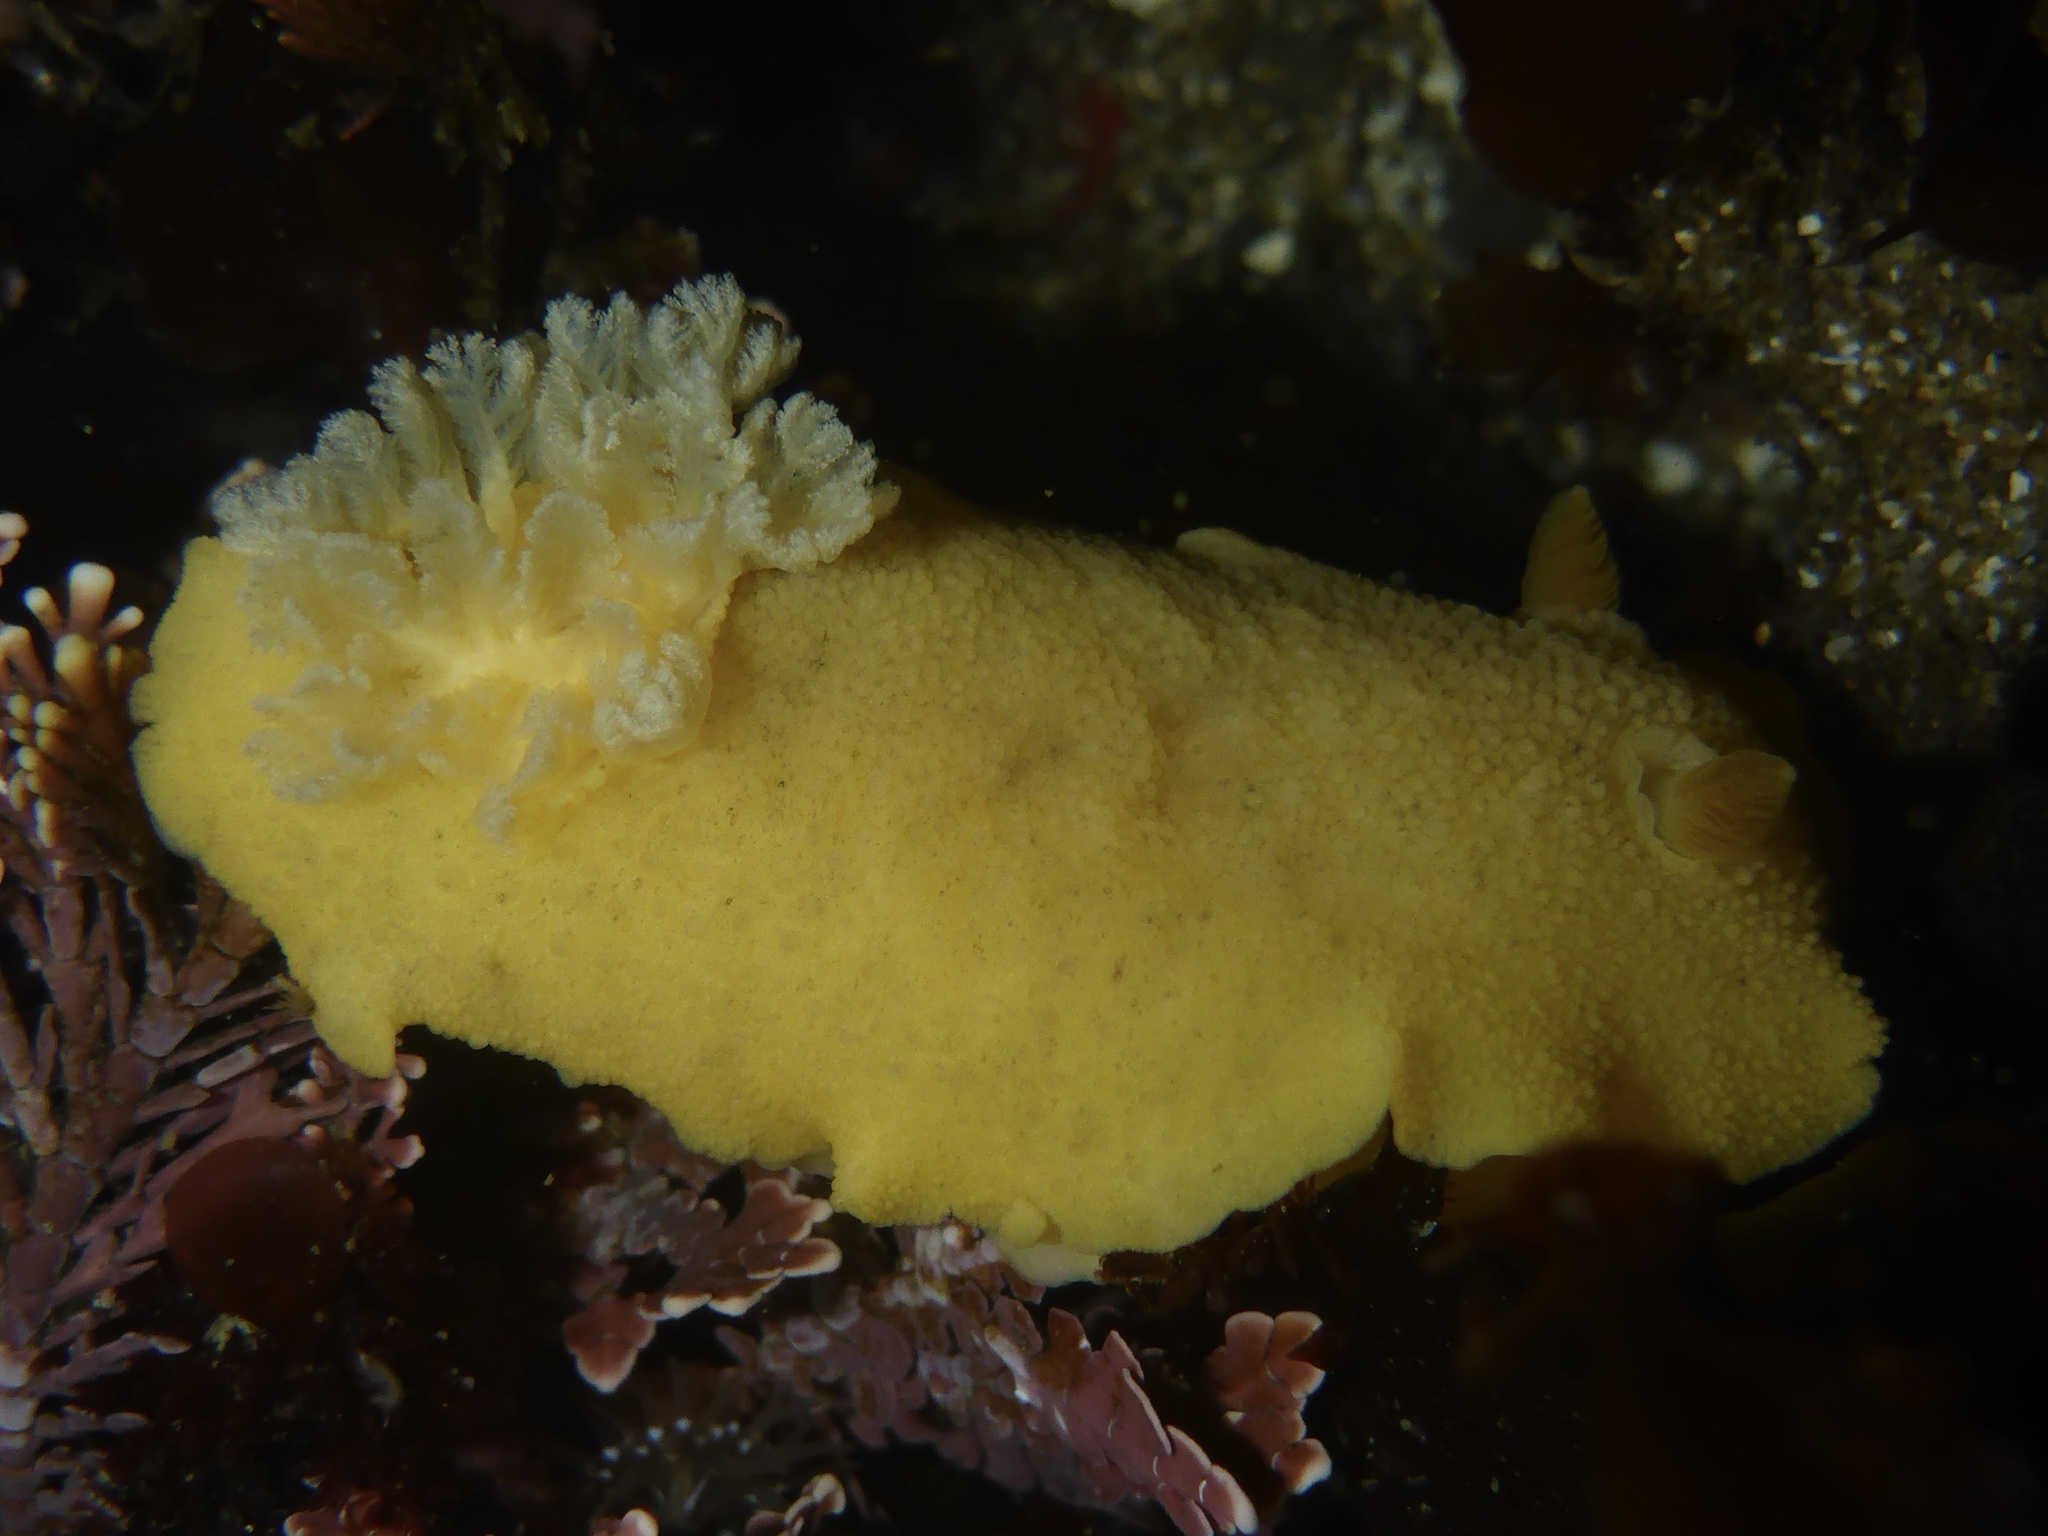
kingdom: Animalia
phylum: Mollusca
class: Gastropoda
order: Nudibranchia
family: Discodorididae
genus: Geitodoris
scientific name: Geitodoris heathi
